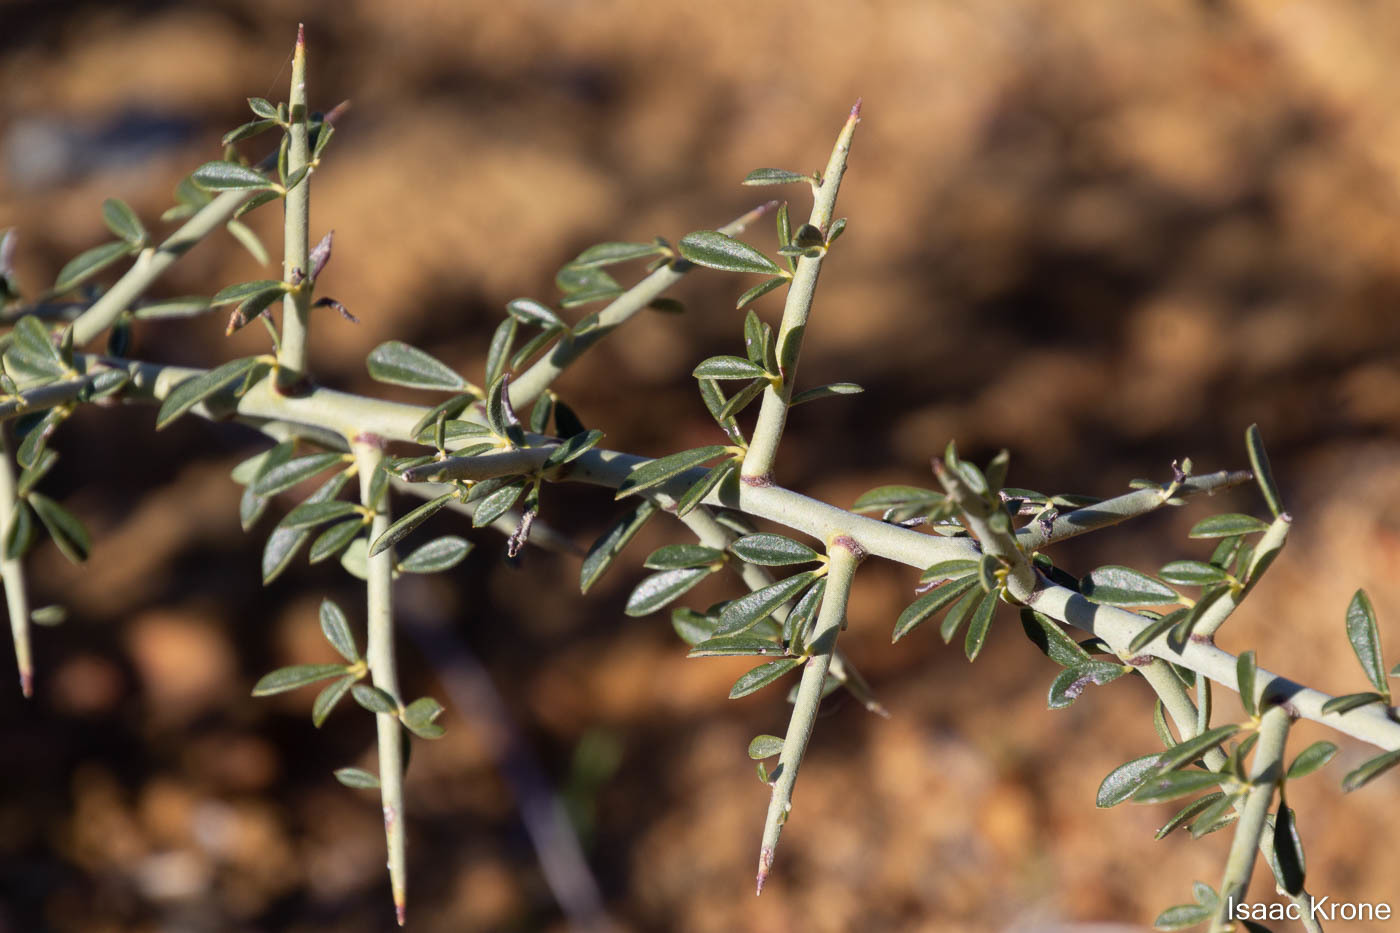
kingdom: Plantae
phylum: Tracheophyta
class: Magnoliopsida
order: Fabales
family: Fabaceae
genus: Pickeringia
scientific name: Pickeringia montana
